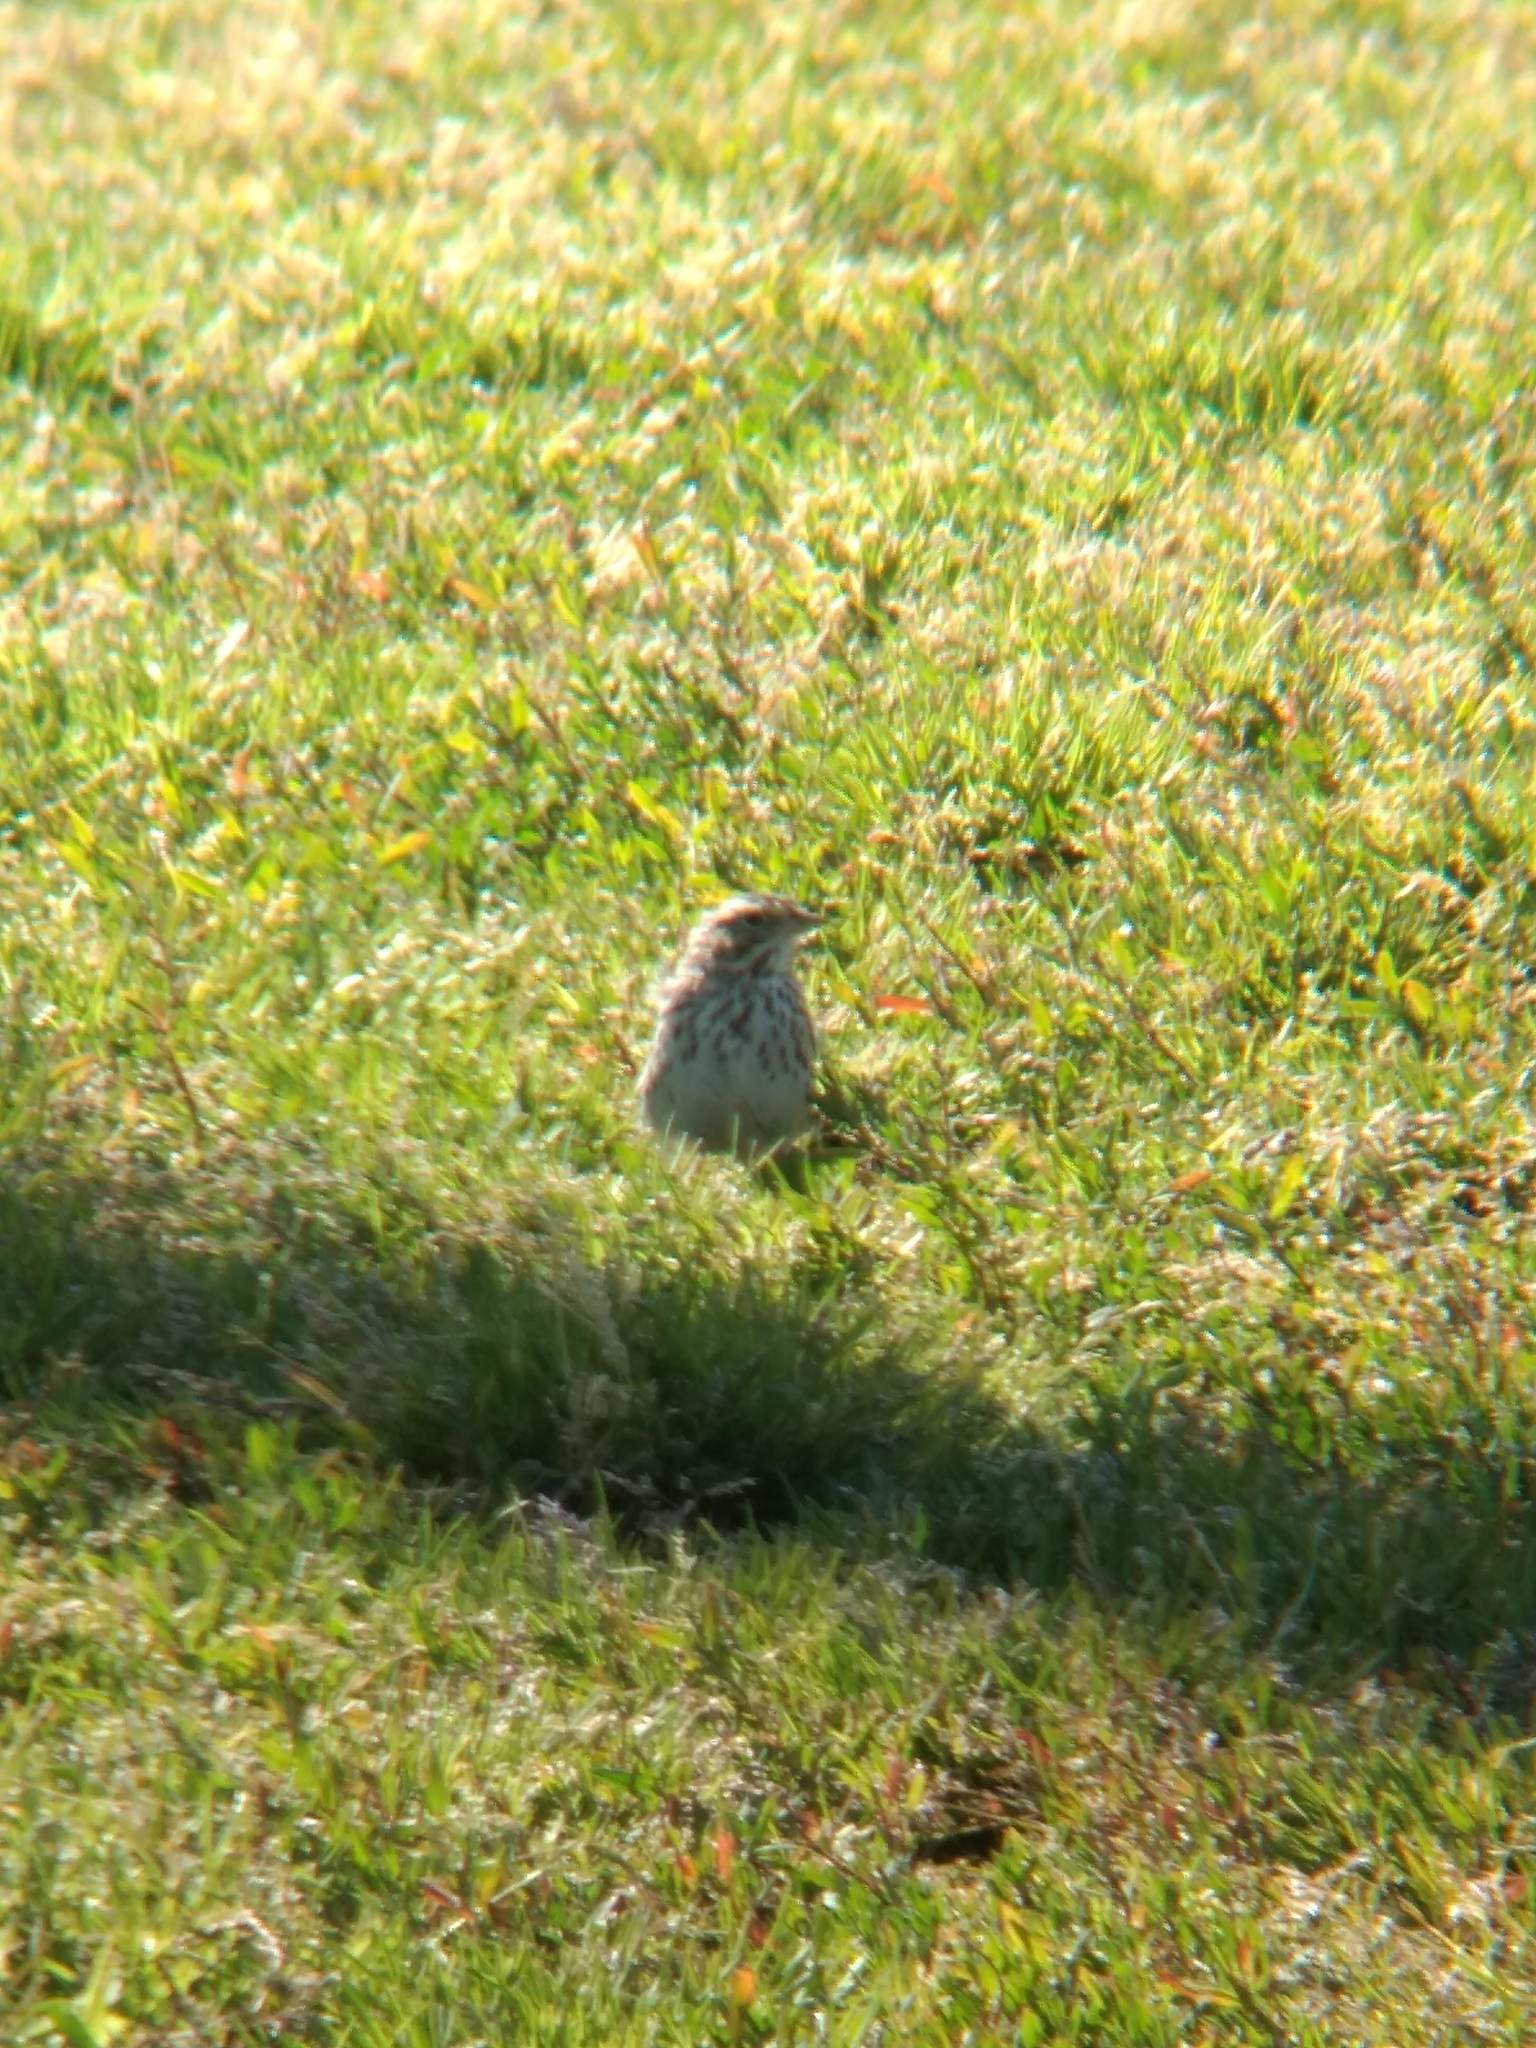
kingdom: Animalia
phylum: Chordata
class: Aves
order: Passeriformes
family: Passerellidae
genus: Passerculus
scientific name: Passerculus sandwichensis
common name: Savannah sparrow
